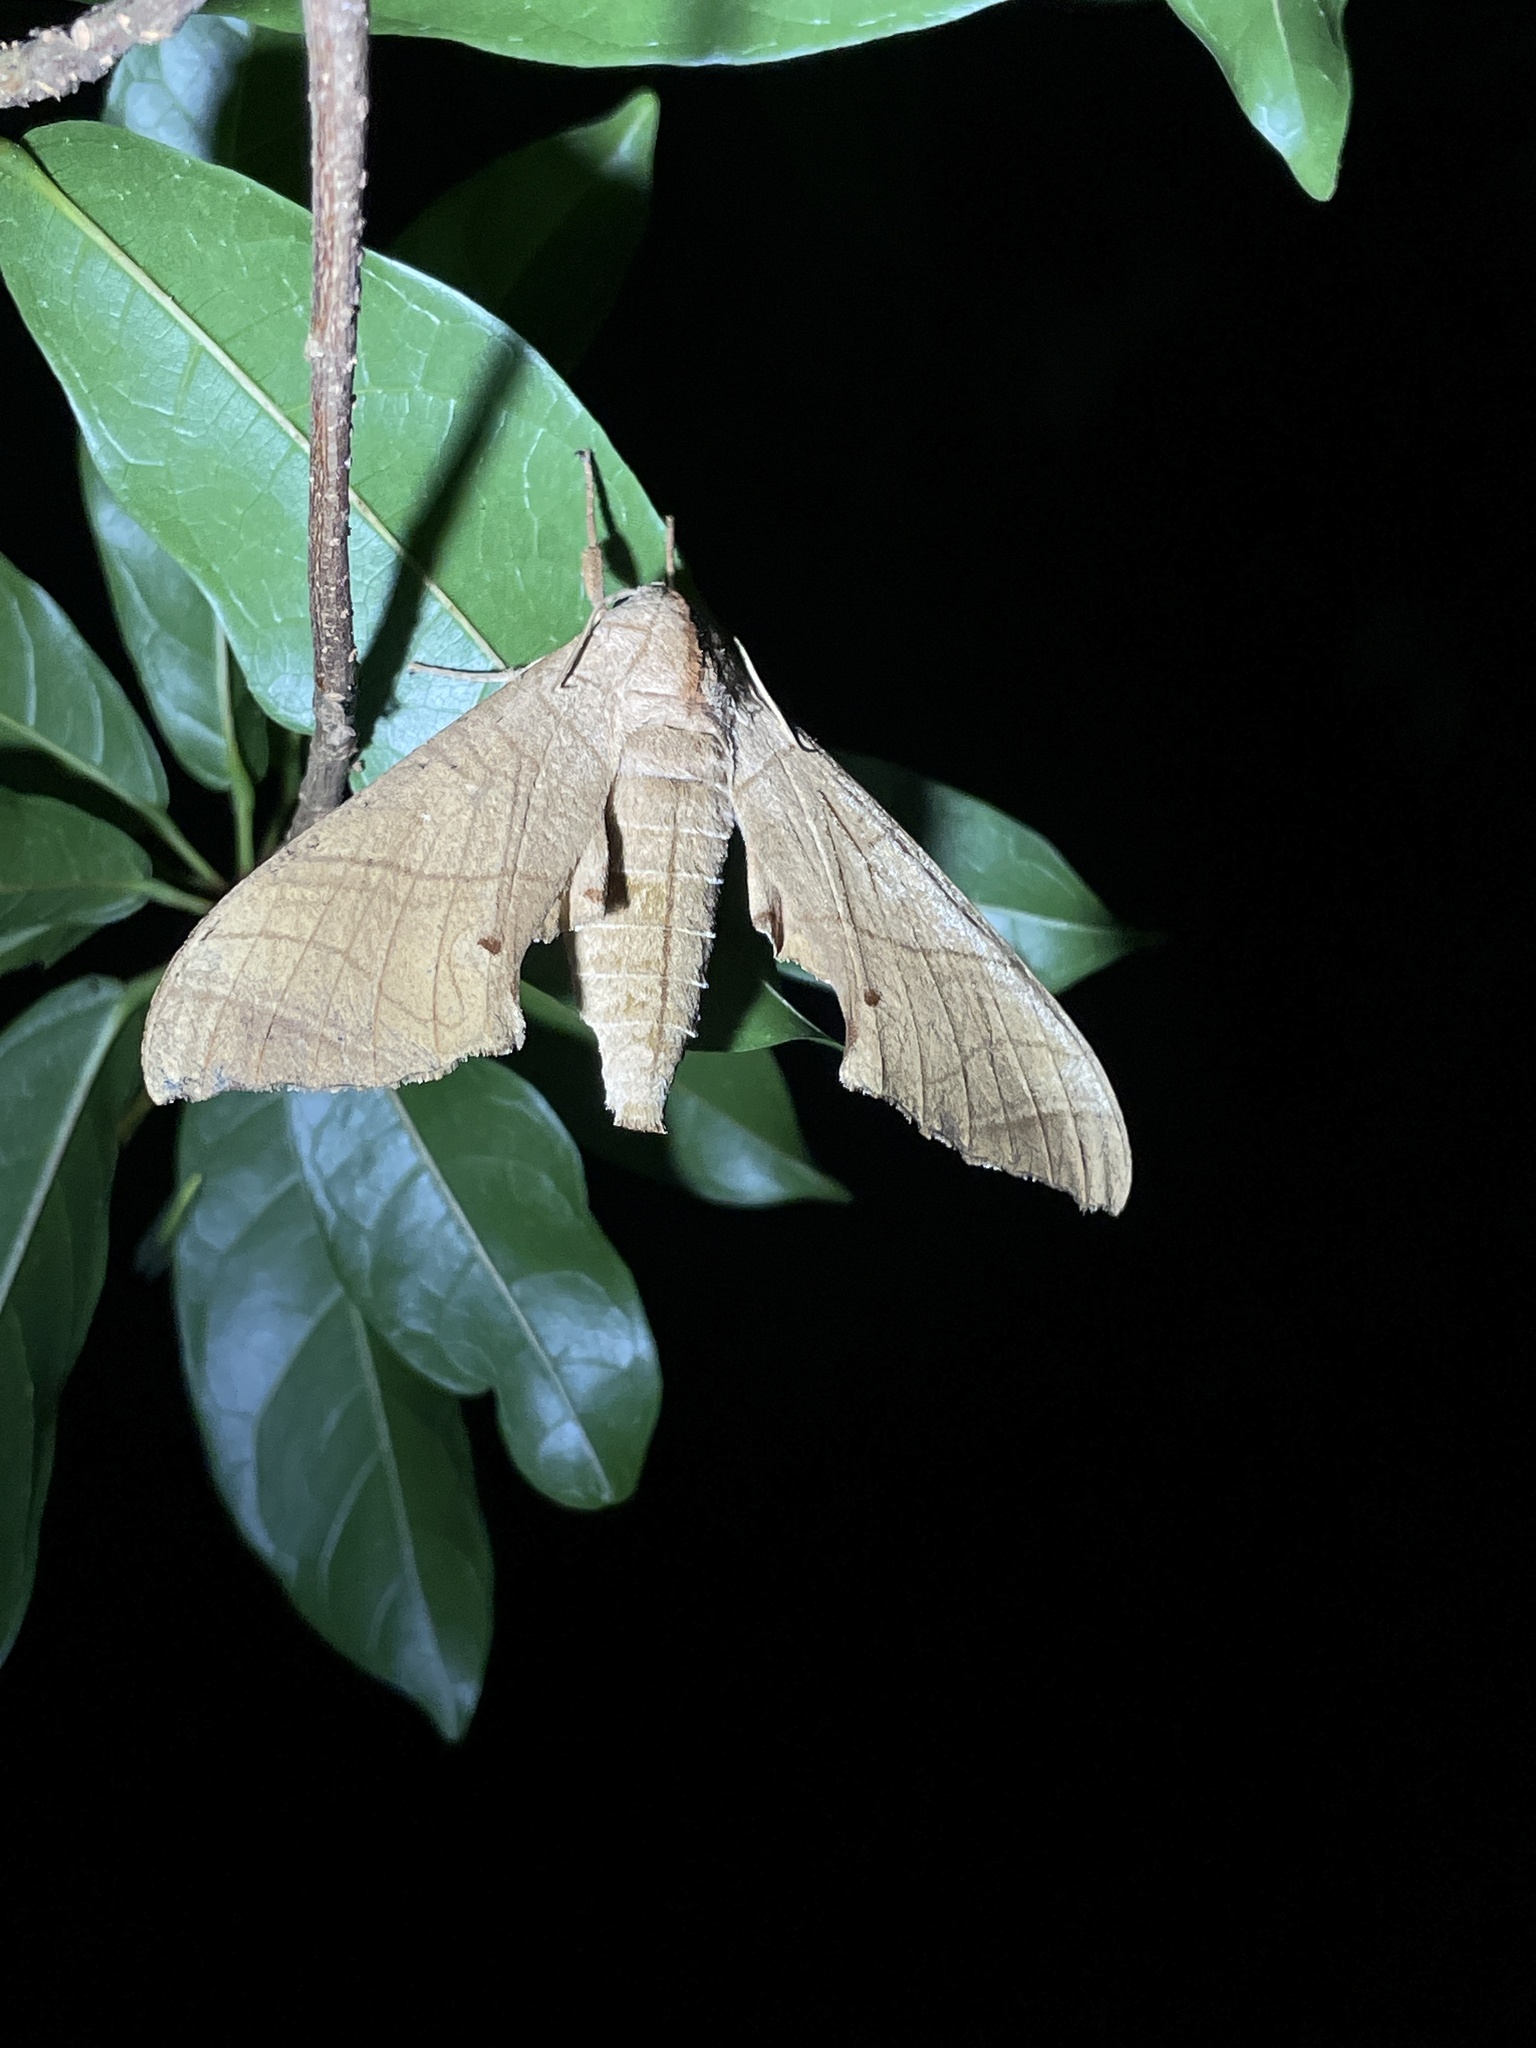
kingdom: Animalia
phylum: Arthropoda
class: Insecta
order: Lepidoptera
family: Sphingidae
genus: Marumba
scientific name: Marumba dyras
